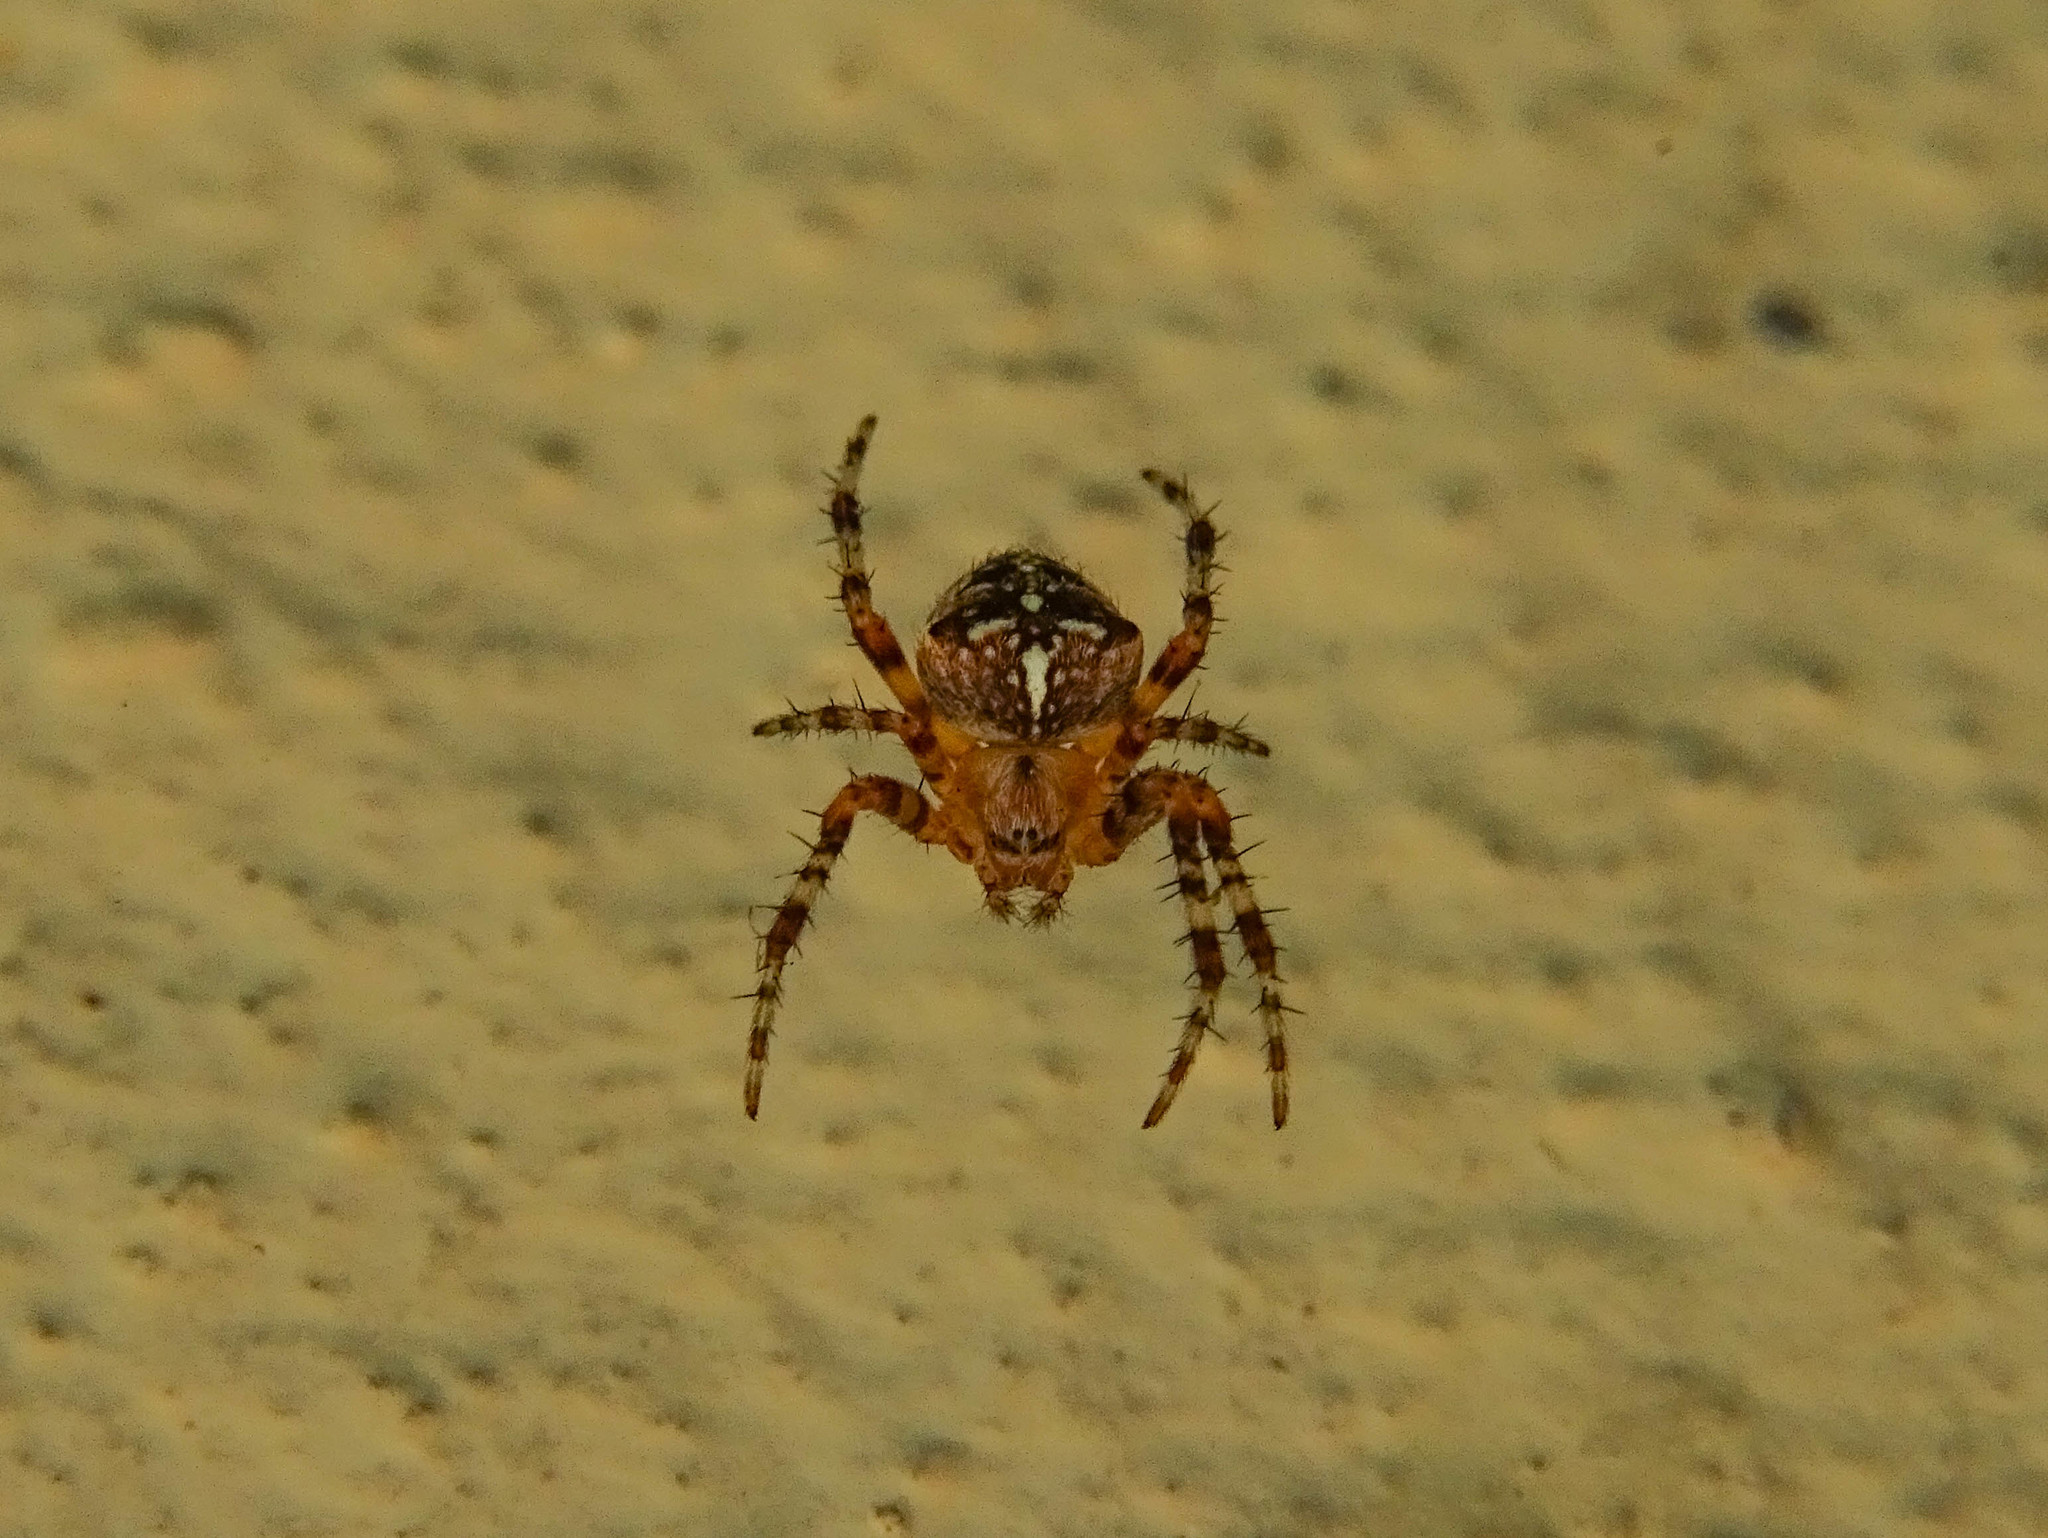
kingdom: Animalia
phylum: Arthropoda
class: Arachnida
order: Araneae
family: Araneidae
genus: Araneus
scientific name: Araneus diadematus
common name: Cross orbweaver
